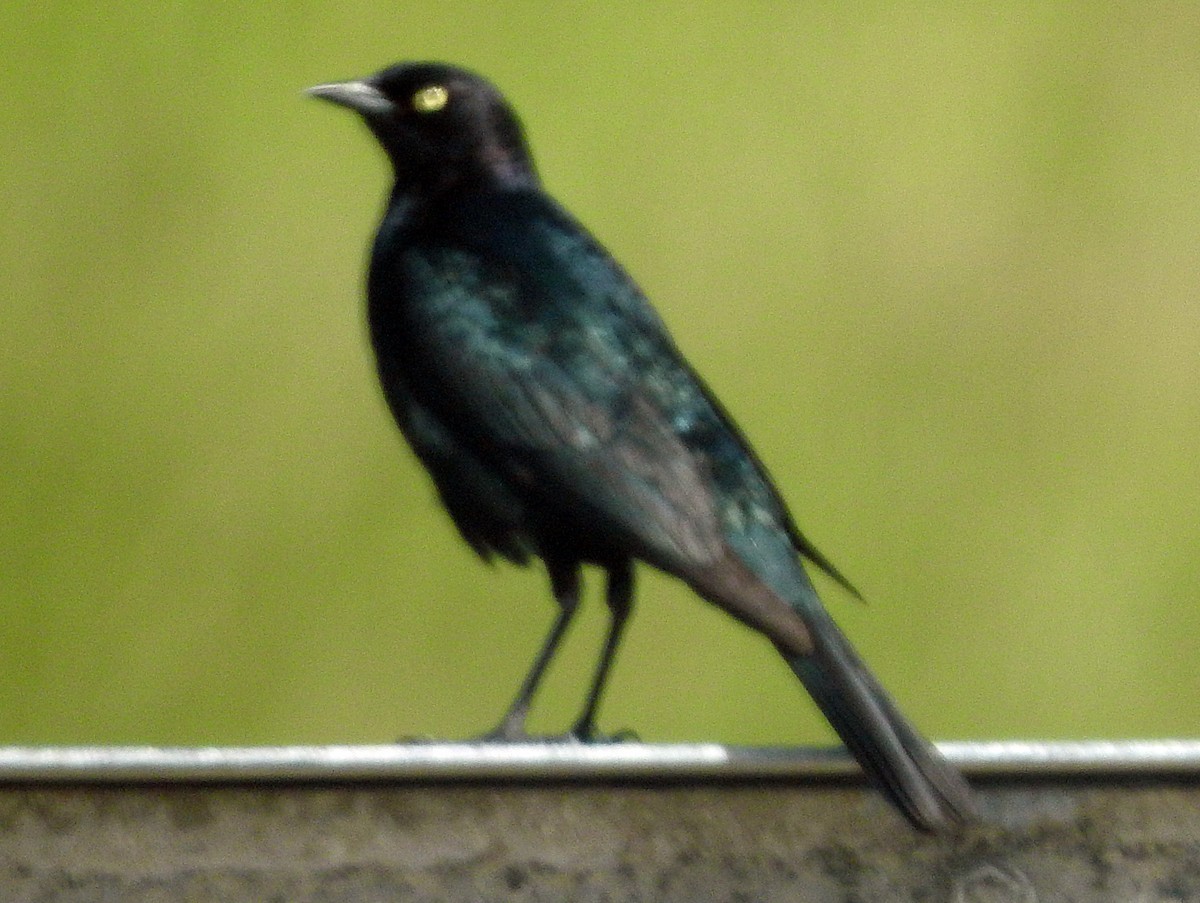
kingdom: Animalia
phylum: Chordata
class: Aves
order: Passeriformes
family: Icteridae
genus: Euphagus
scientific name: Euphagus cyanocephalus
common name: Brewer's blackbird
